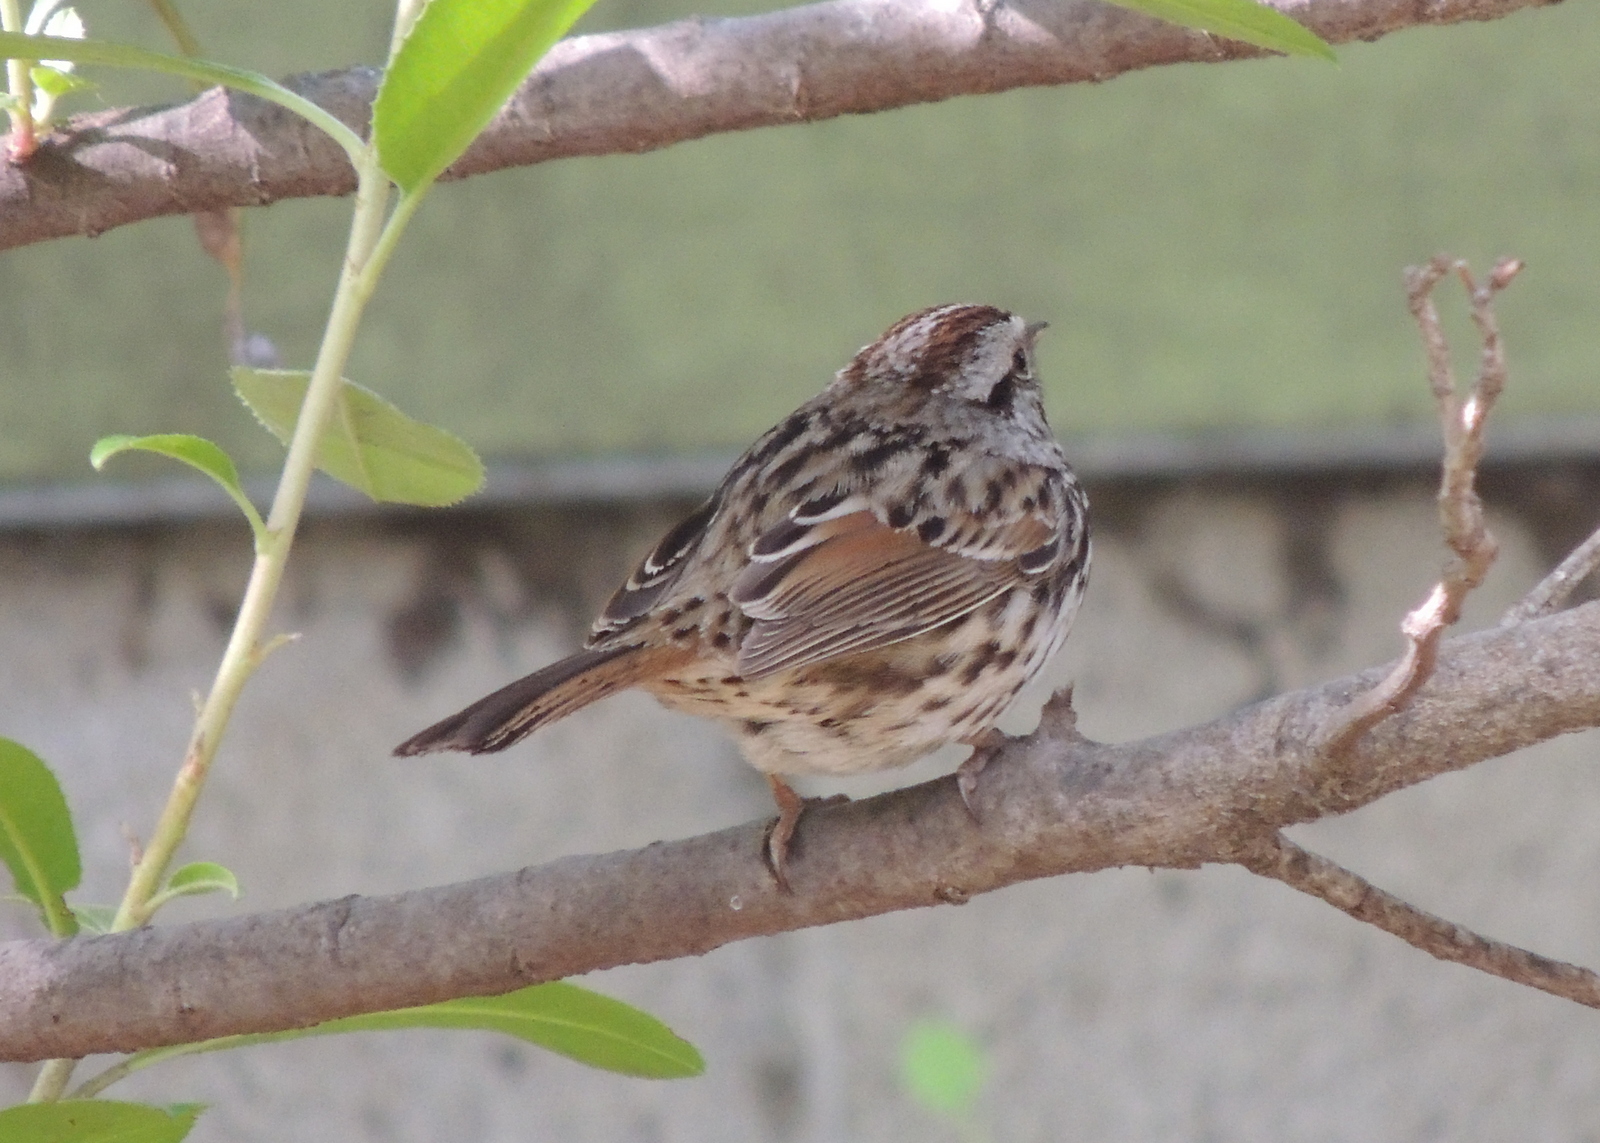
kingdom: Animalia
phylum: Chordata
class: Aves
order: Passeriformes
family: Passerellidae
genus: Melospiza
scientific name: Melospiza melodia
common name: Song sparrow
